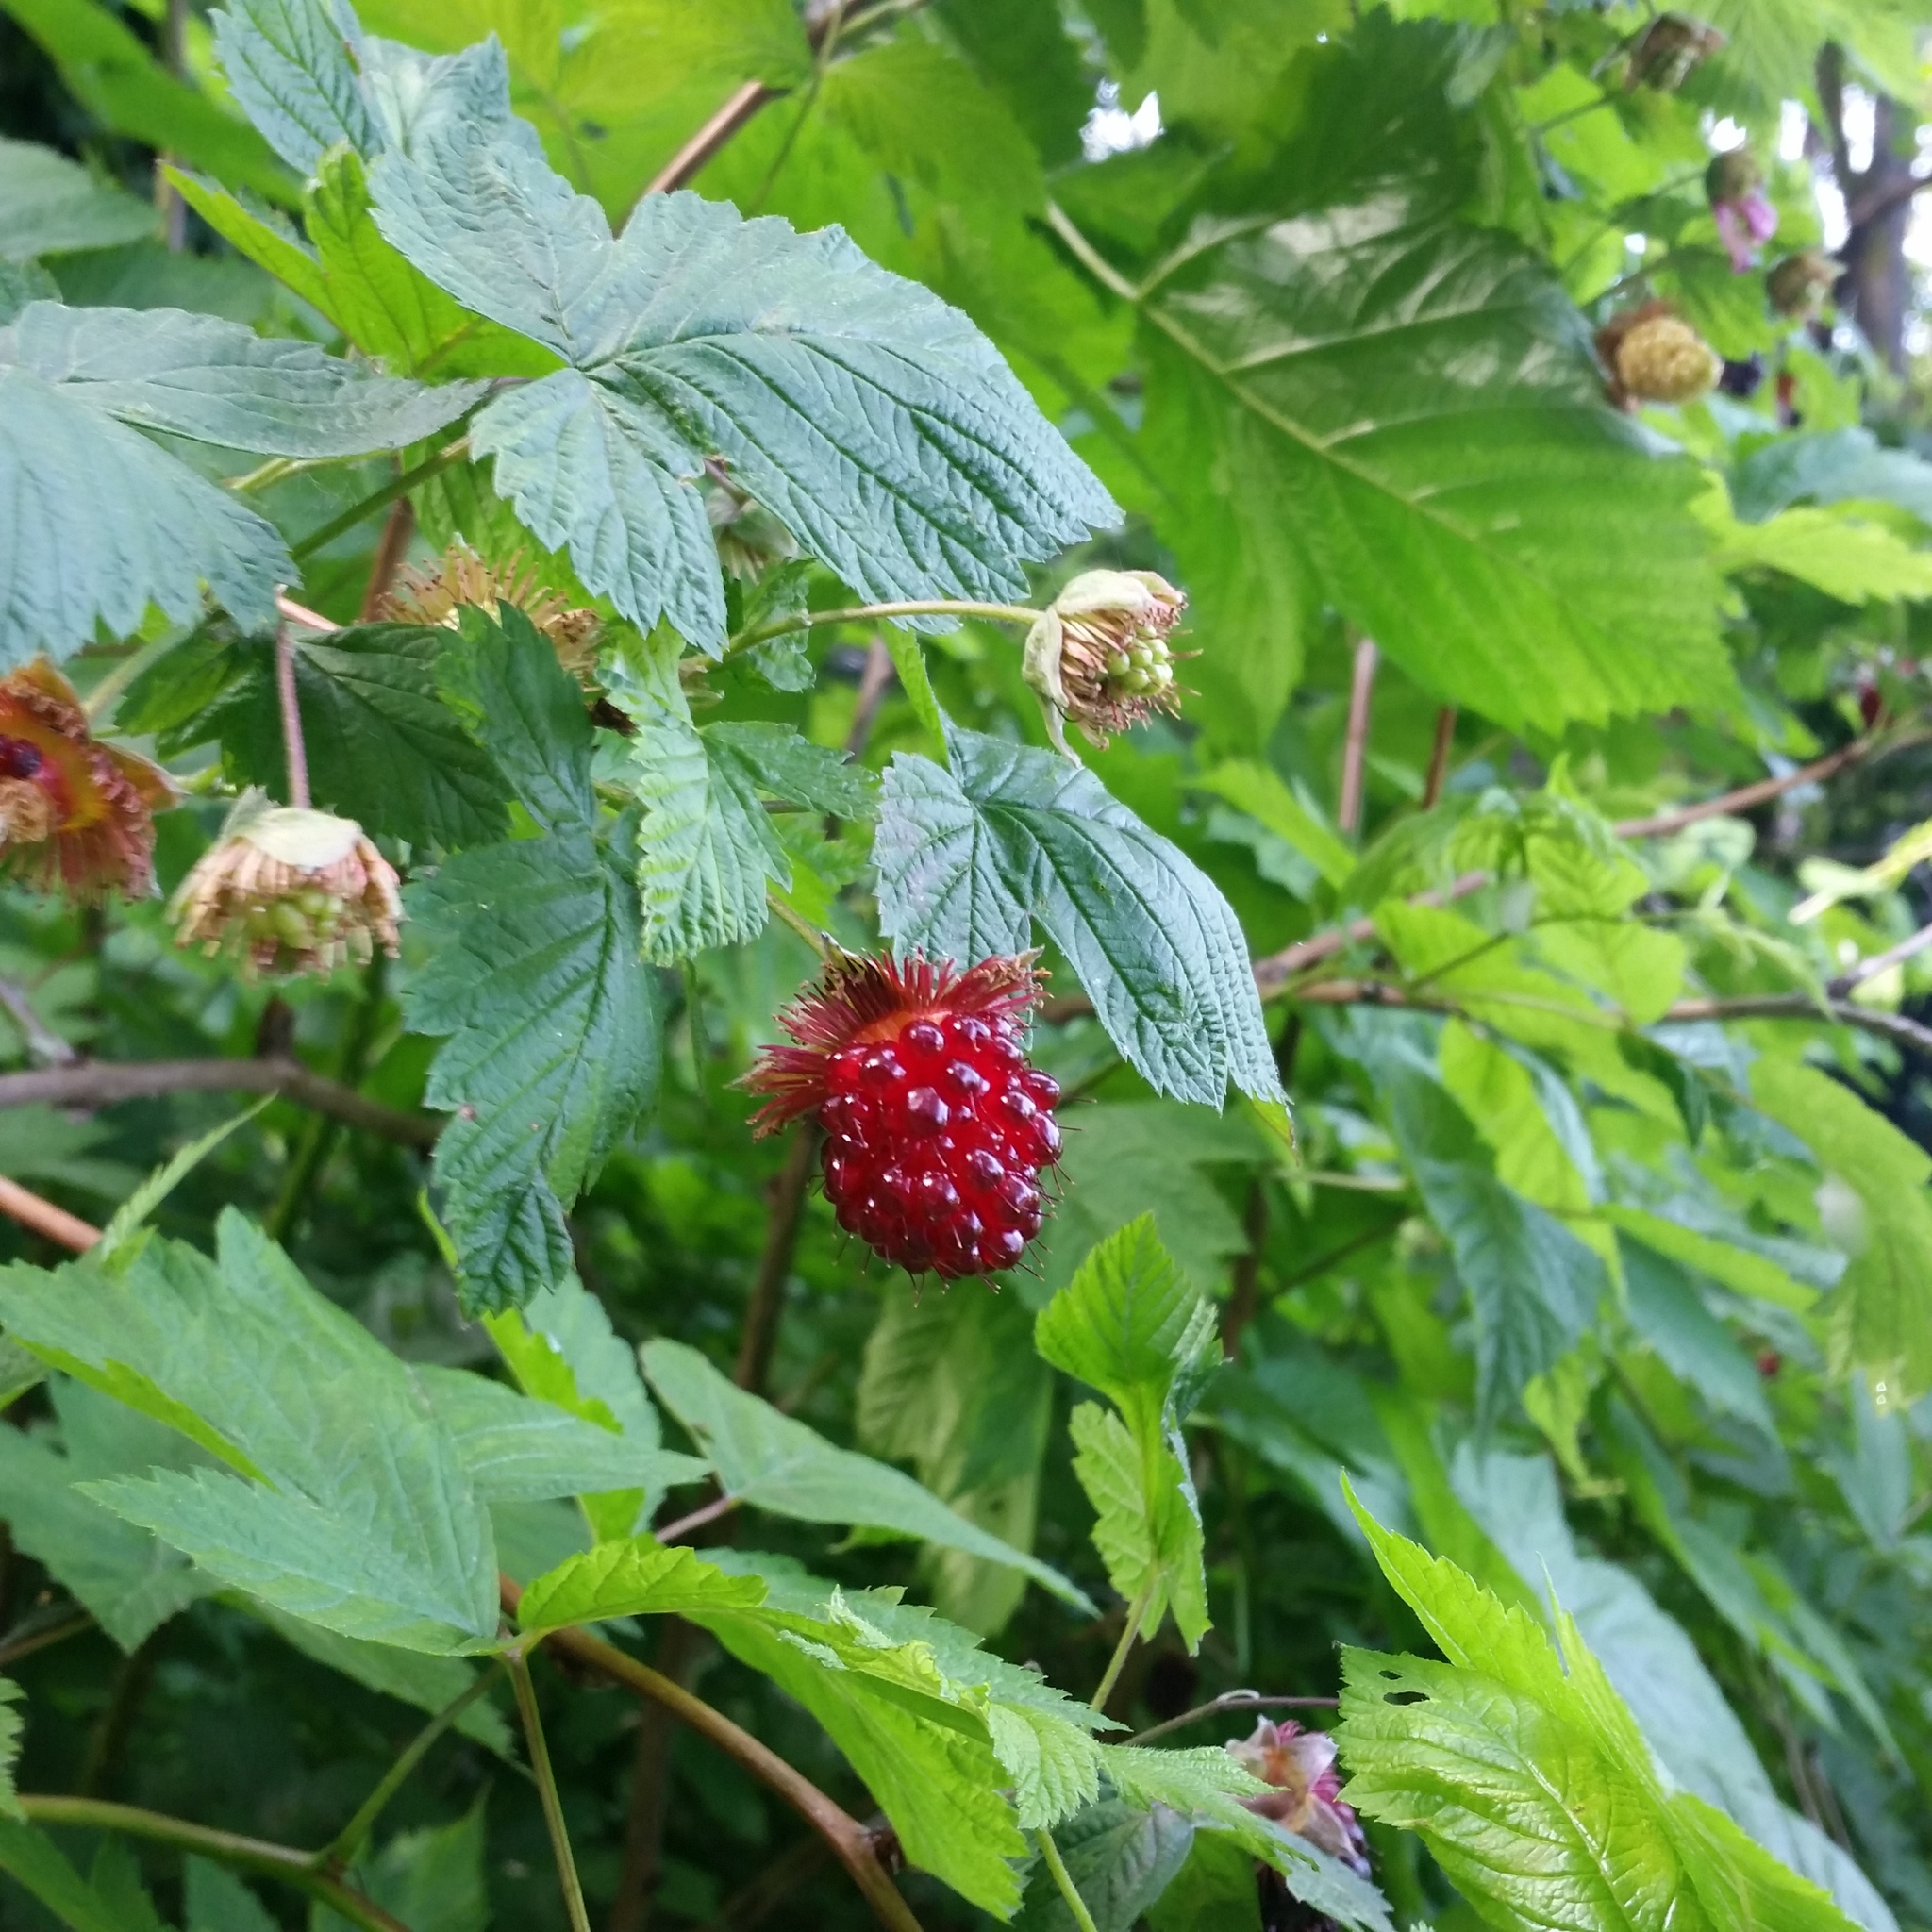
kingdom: Plantae
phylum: Tracheophyta
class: Magnoliopsida
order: Rosales
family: Rosaceae
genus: Rubus
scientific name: Rubus spectabilis
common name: Salmonberry
